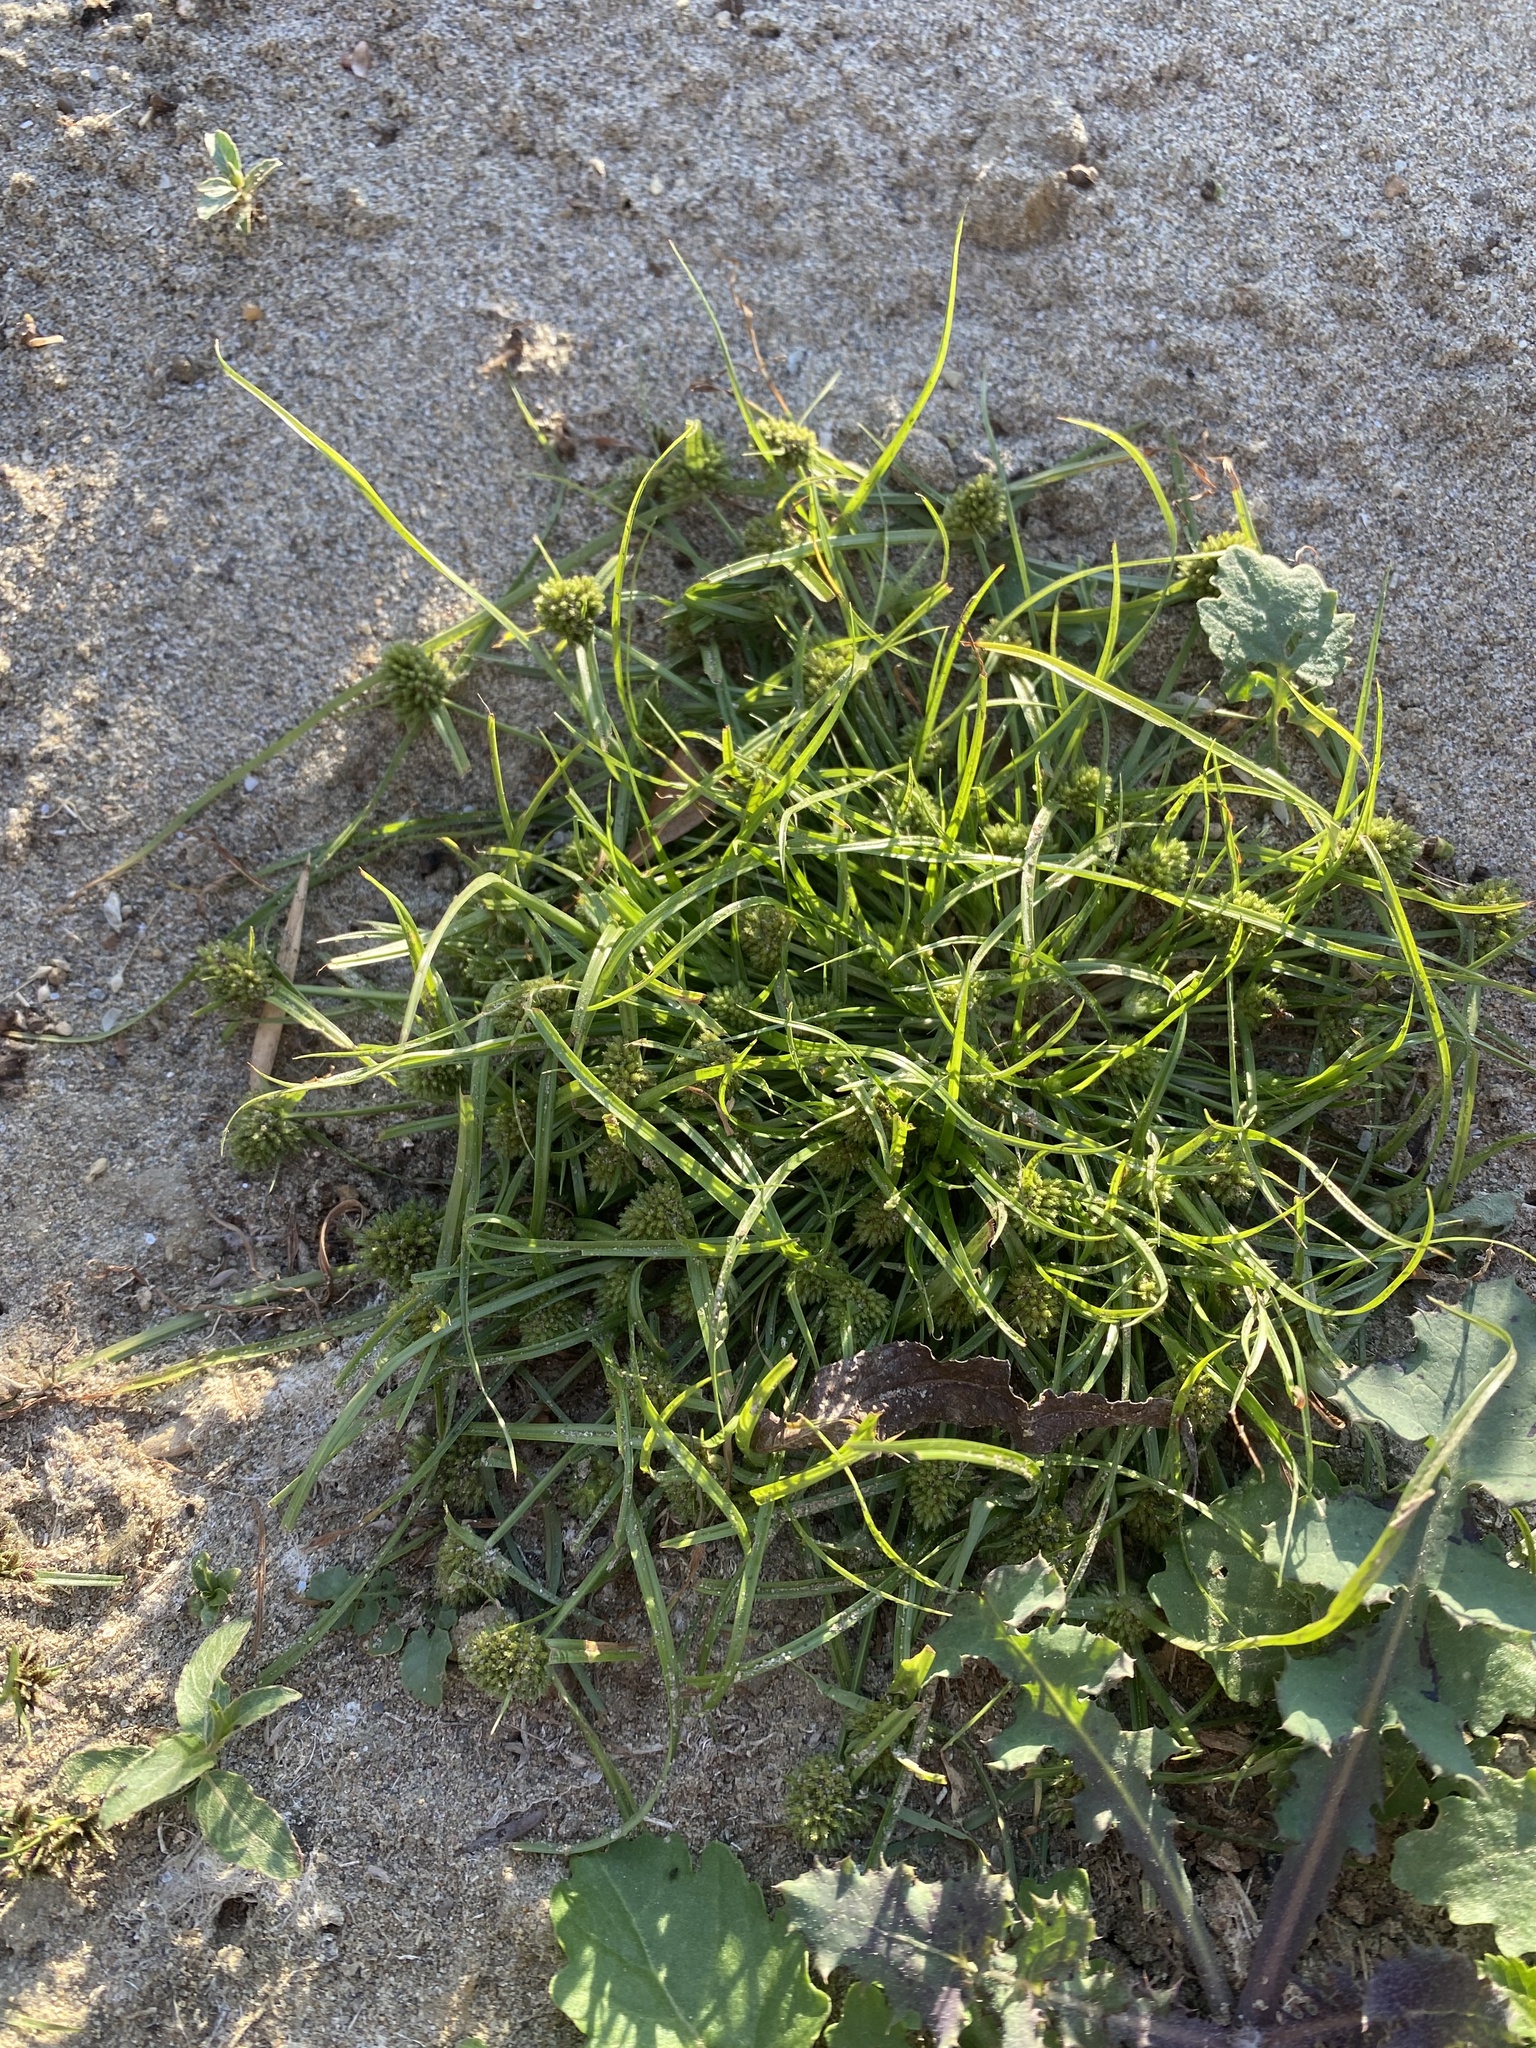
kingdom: Plantae
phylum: Tracheophyta
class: Liliopsida
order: Poales
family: Cyperaceae
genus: Cyperus
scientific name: Cyperus michelianus
